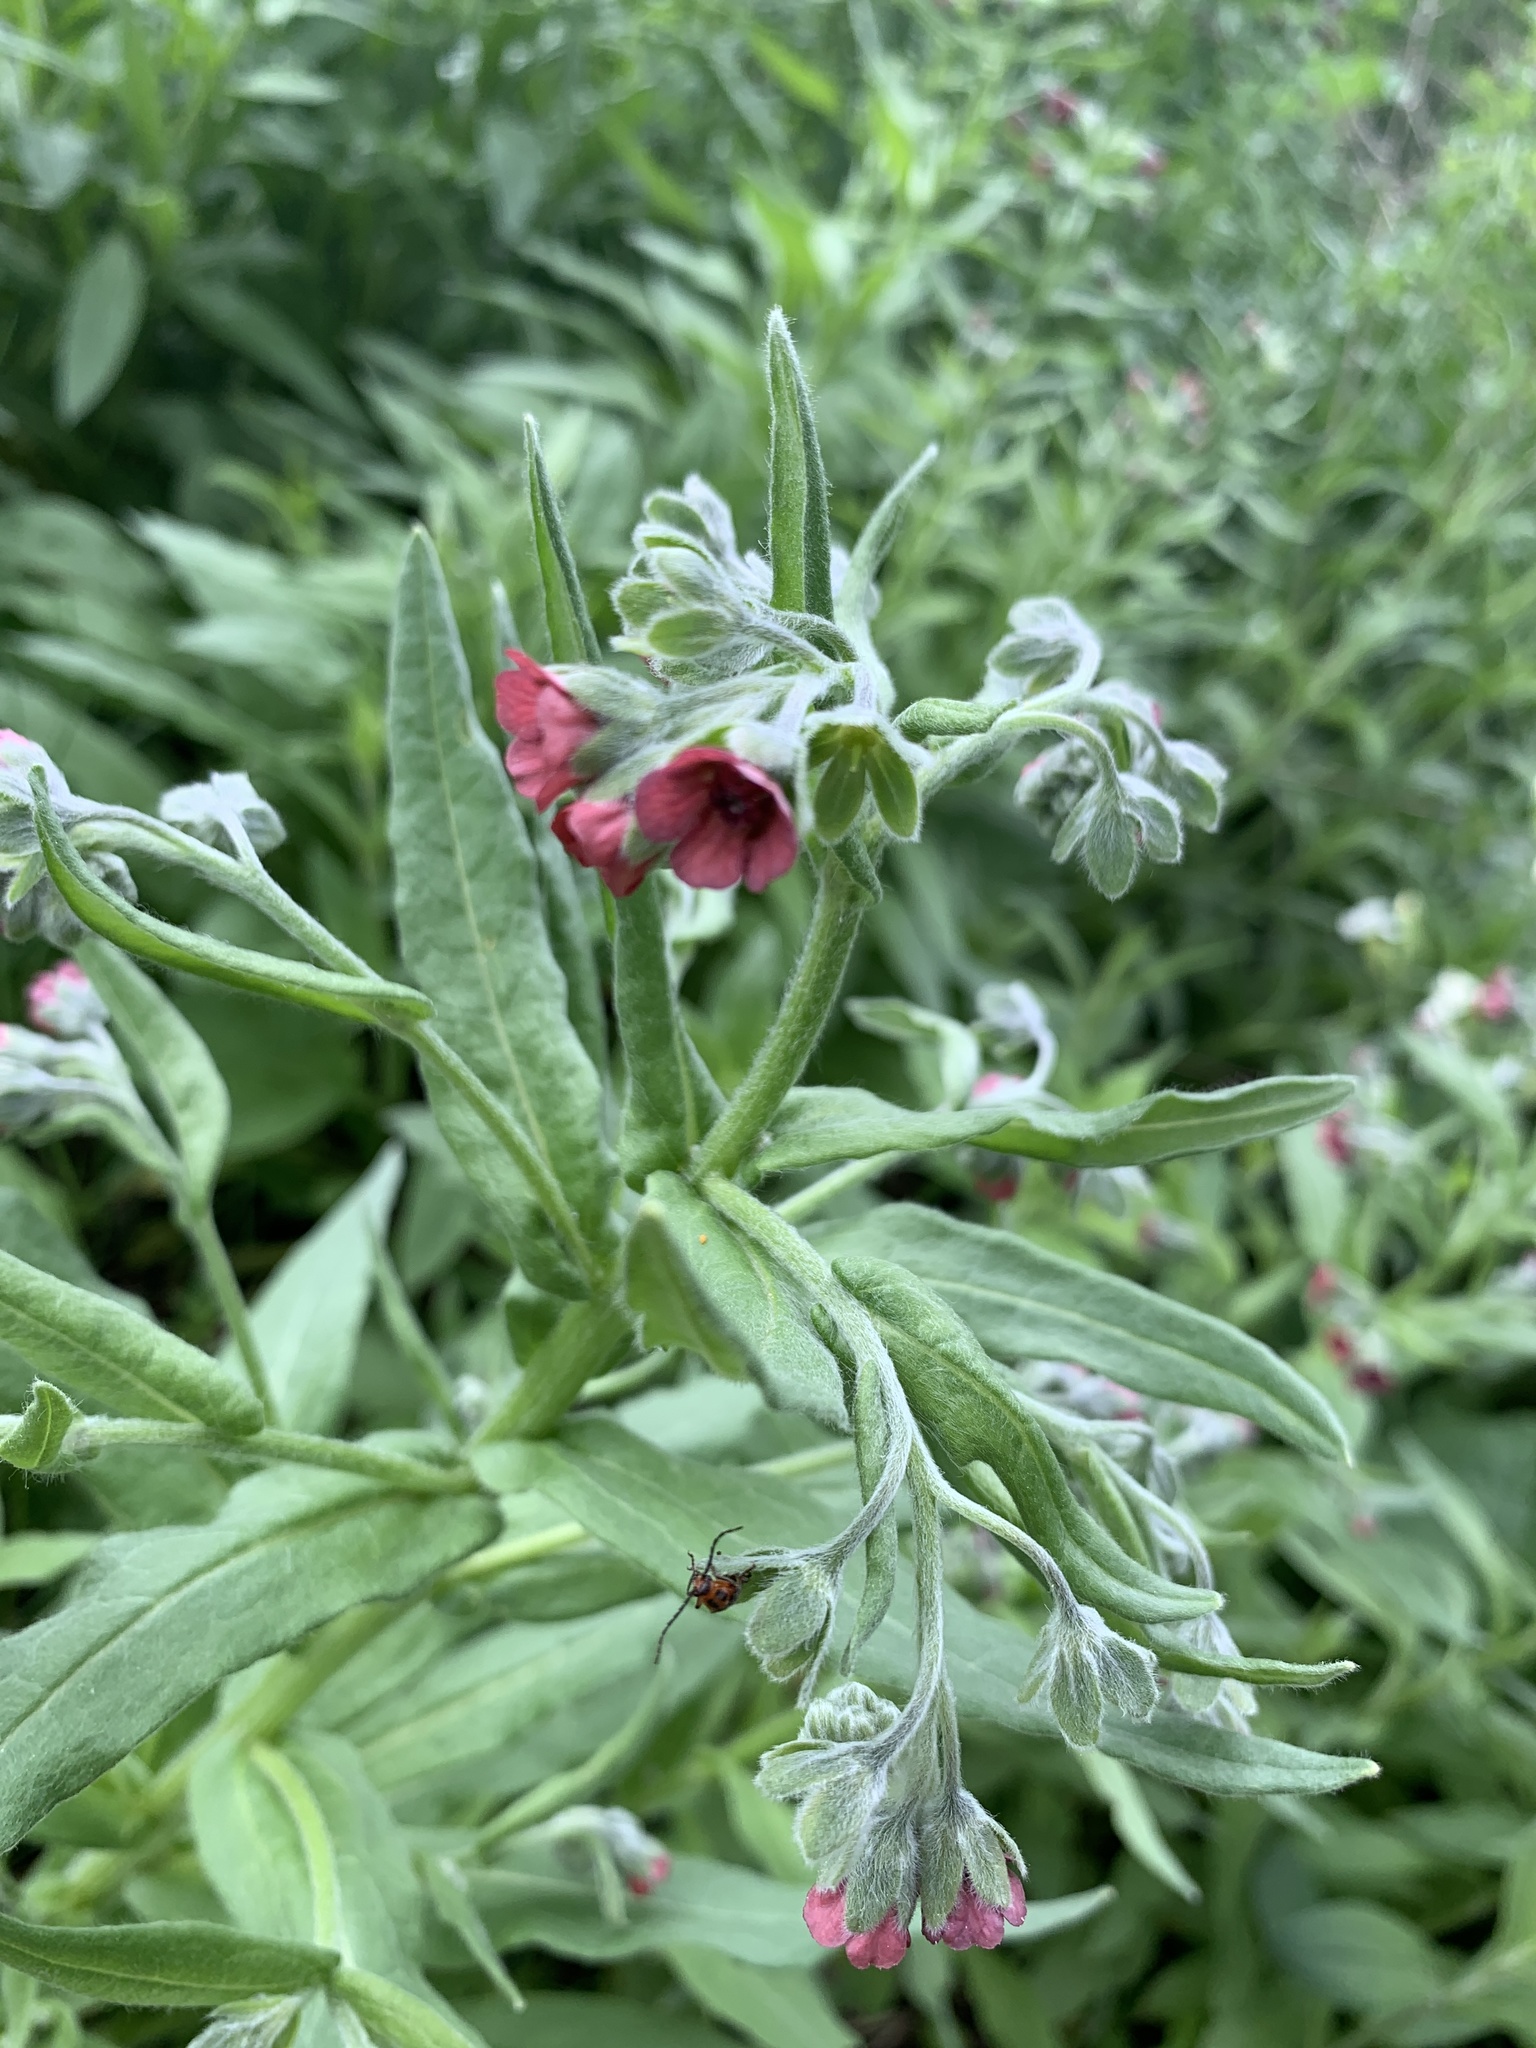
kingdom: Plantae
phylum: Tracheophyta
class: Magnoliopsida
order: Boraginales
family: Boraginaceae
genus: Cynoglossum
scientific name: Cynoglossum officinale
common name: Hound's-tongue
